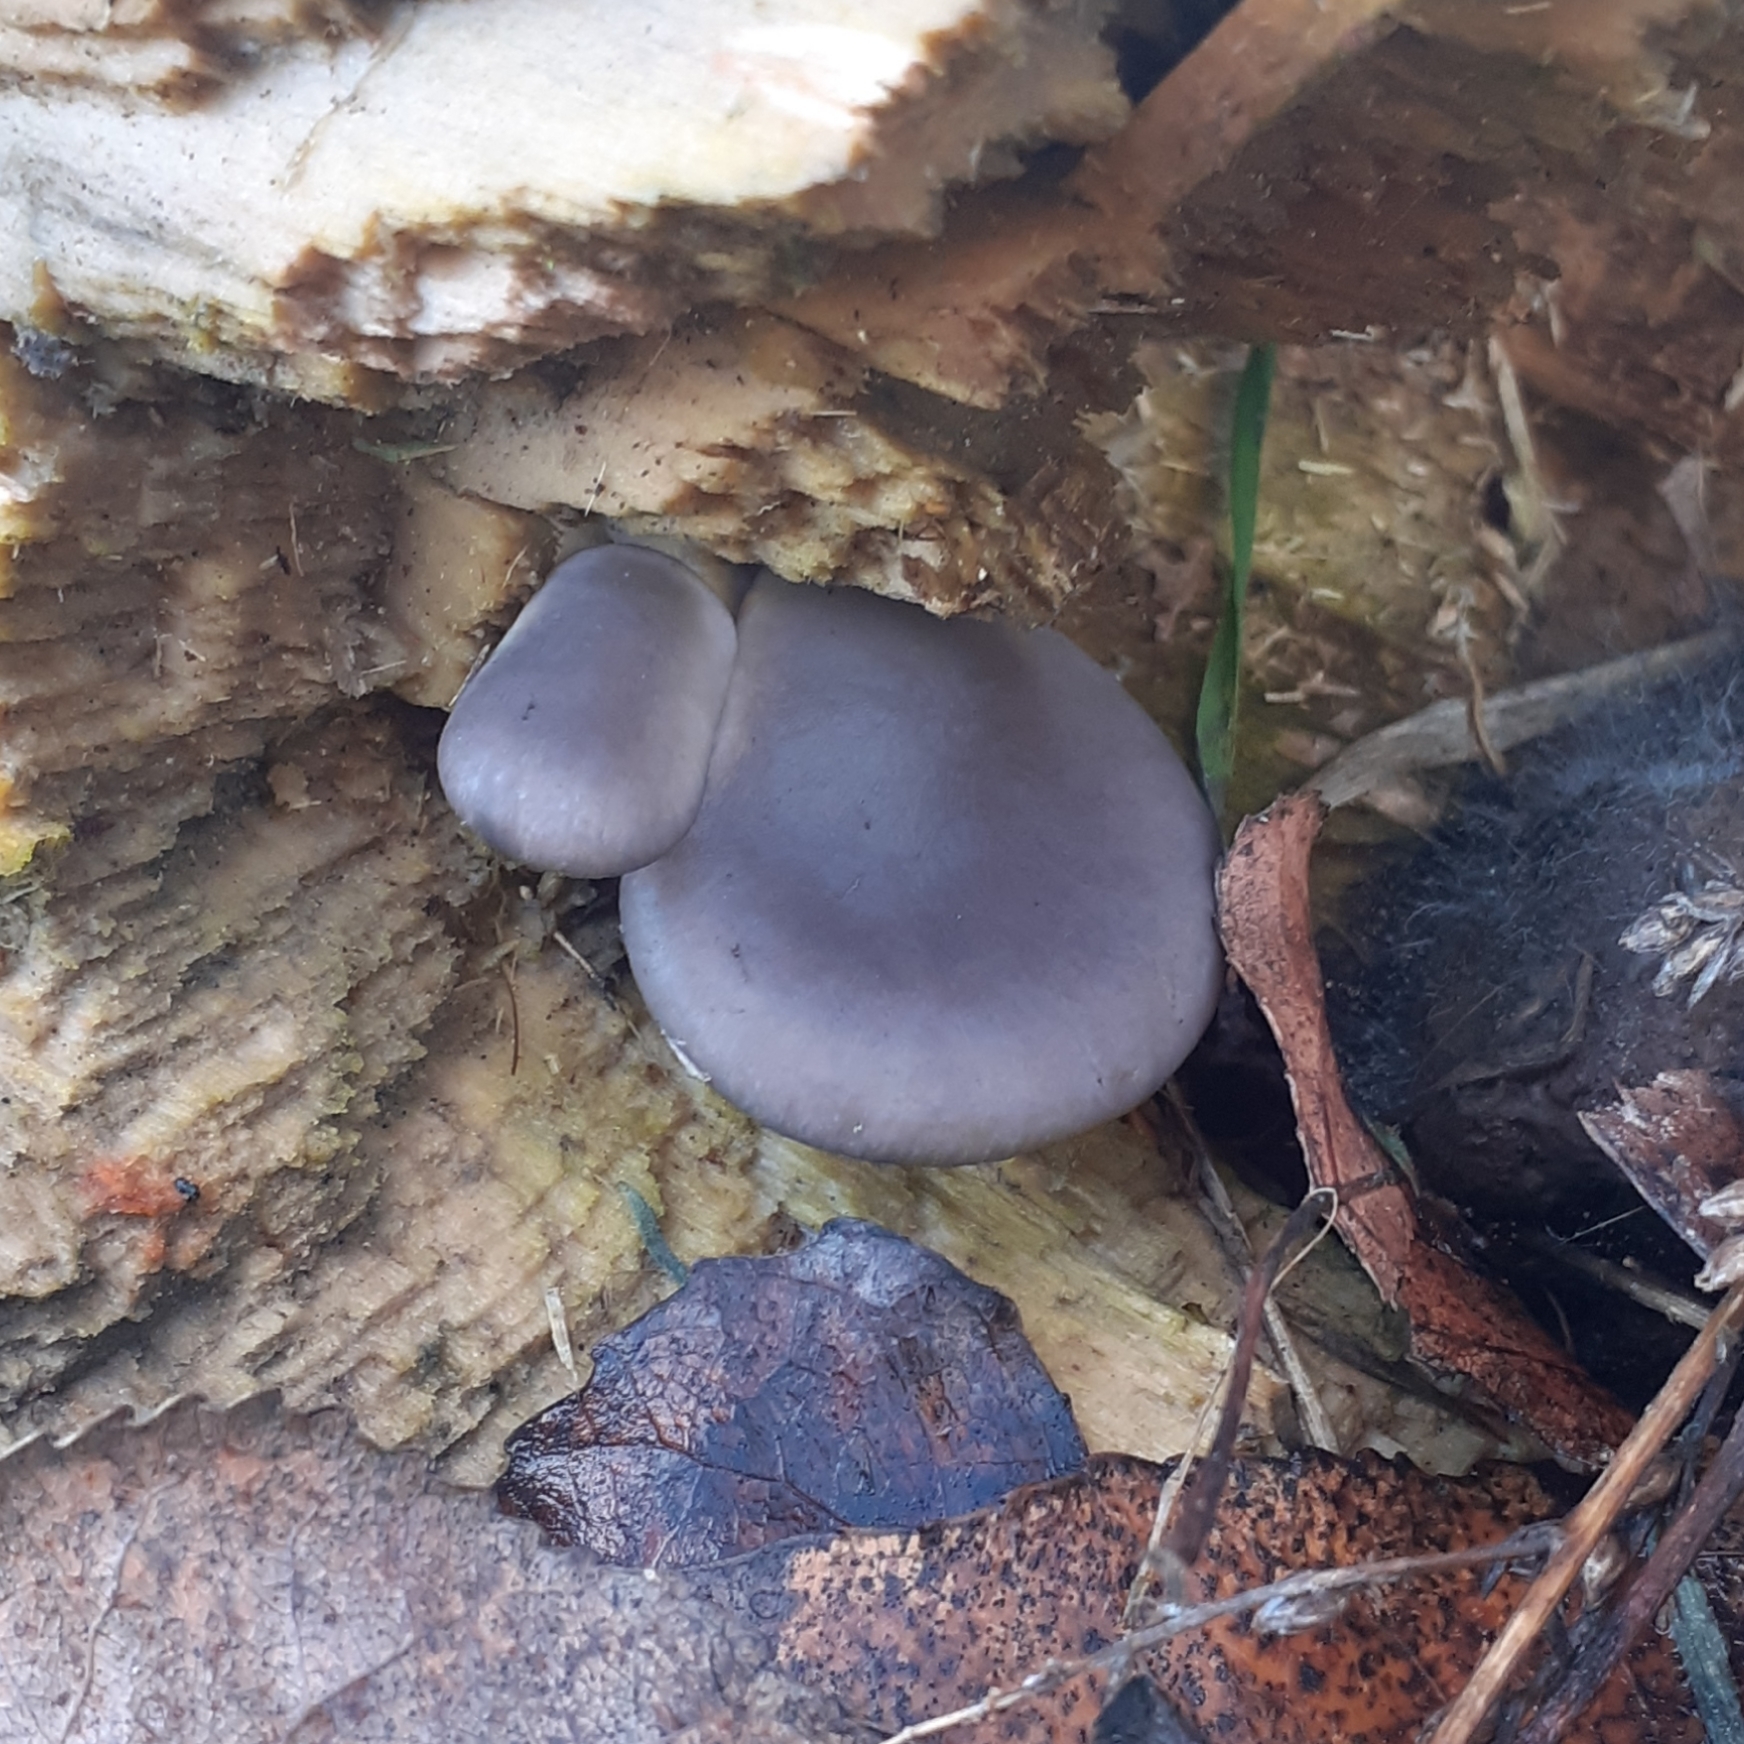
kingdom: Fungi
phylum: Basidiomycota
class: Agaricomycetes
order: Agaricales
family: Pleurotaceae
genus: Pleurotus
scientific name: Pleurotus ostreatus
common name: Oyster mushroom
